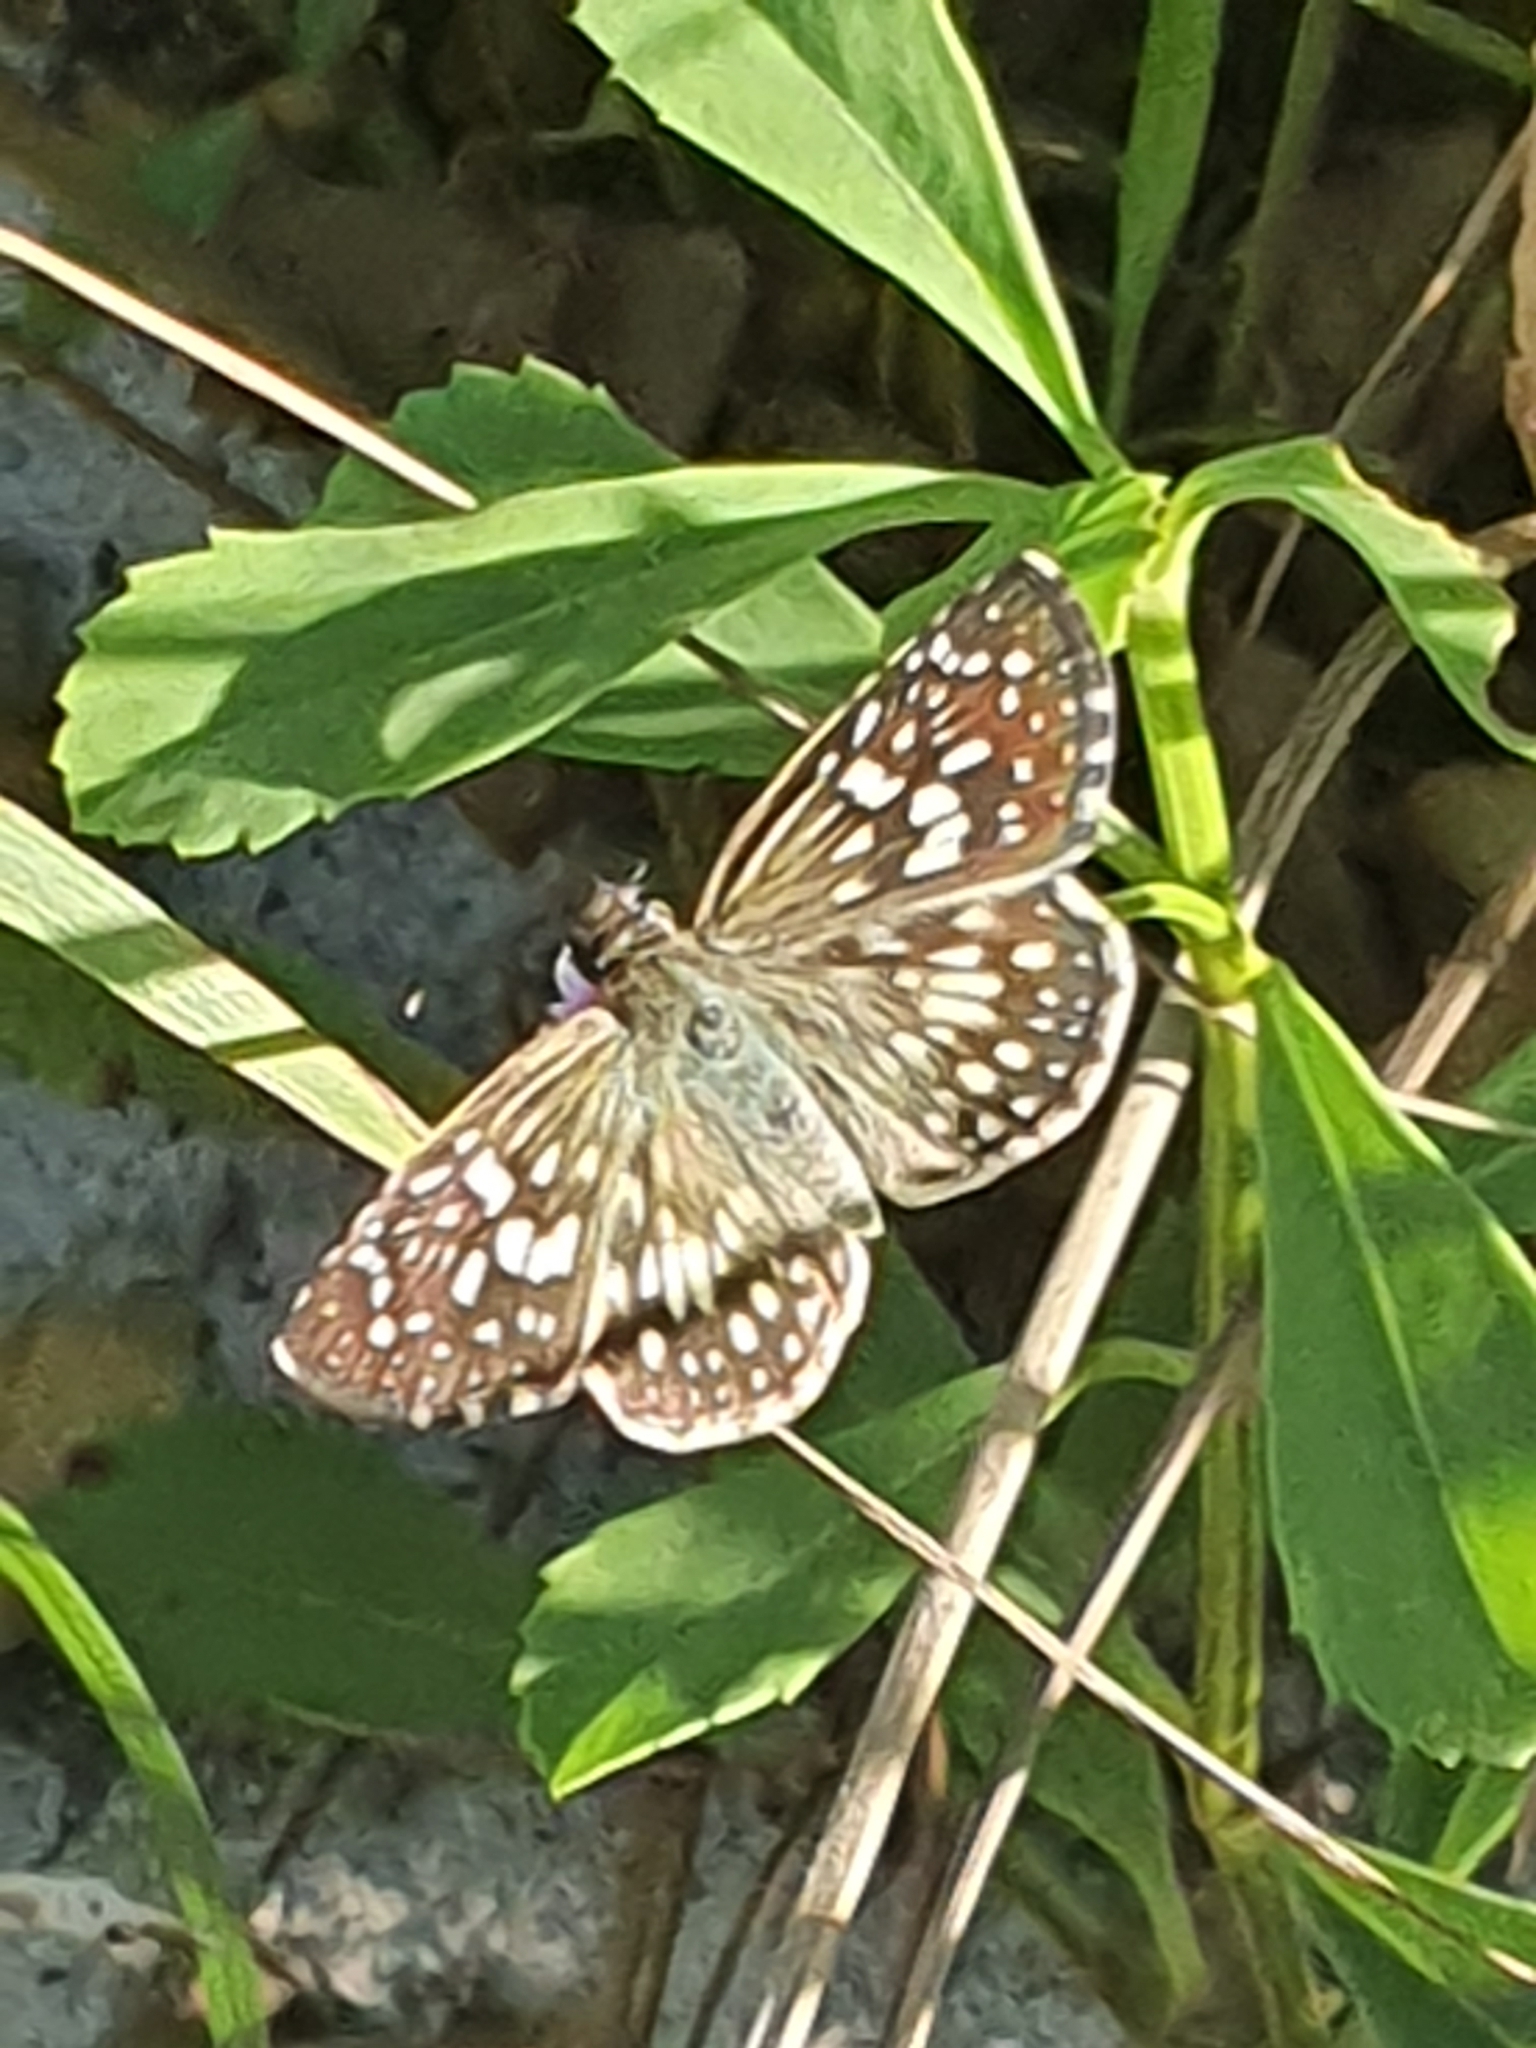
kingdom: Animalia
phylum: Arthropoda
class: Insecta
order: Lepidoptera
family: Hesperiidae
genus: Pyrgus
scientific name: Pyrgus oileus
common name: Tropical checkered-skipper
